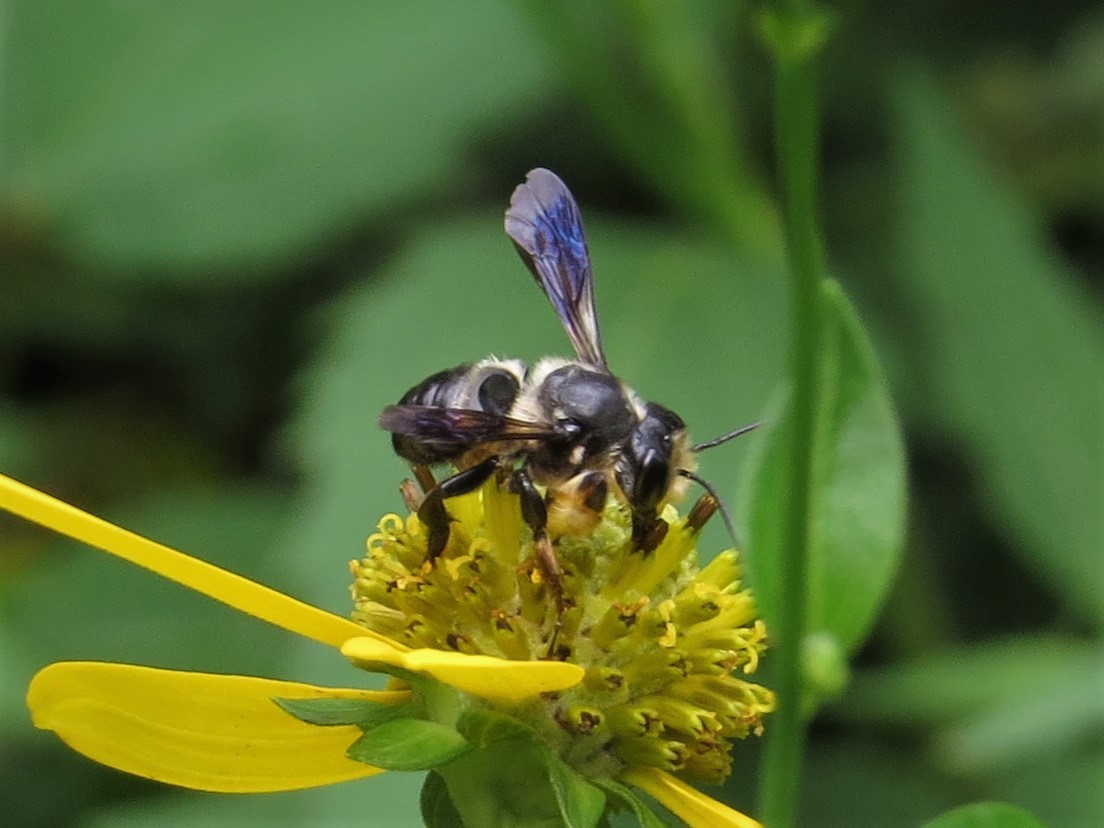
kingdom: Animalia
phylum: Arthropoda
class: Insecta
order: Hymenoptera
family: Megachilidae
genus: Megachile
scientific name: Megachile xylocopoides
